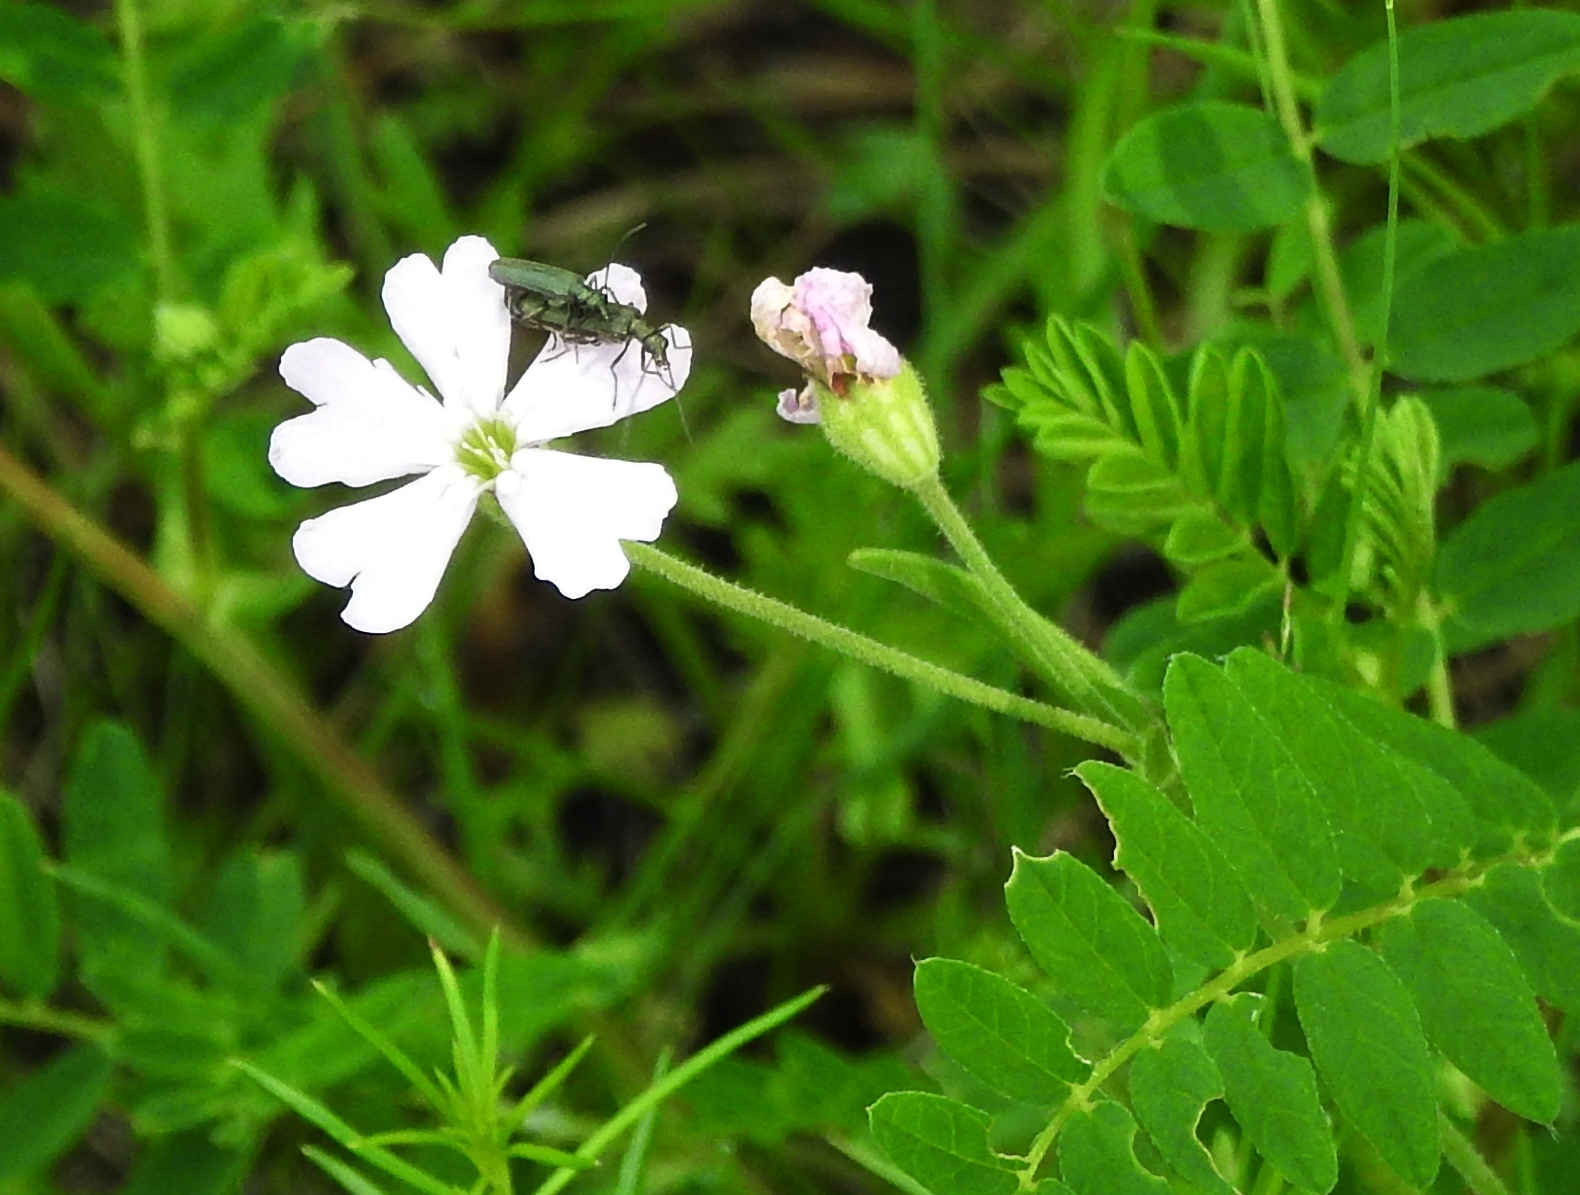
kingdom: Plantae
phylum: Tracheophyta
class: Magnoliopsida
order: Caryophyllales
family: Caryophyllaceae
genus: Silene
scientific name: Silene latifolia
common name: White campion
